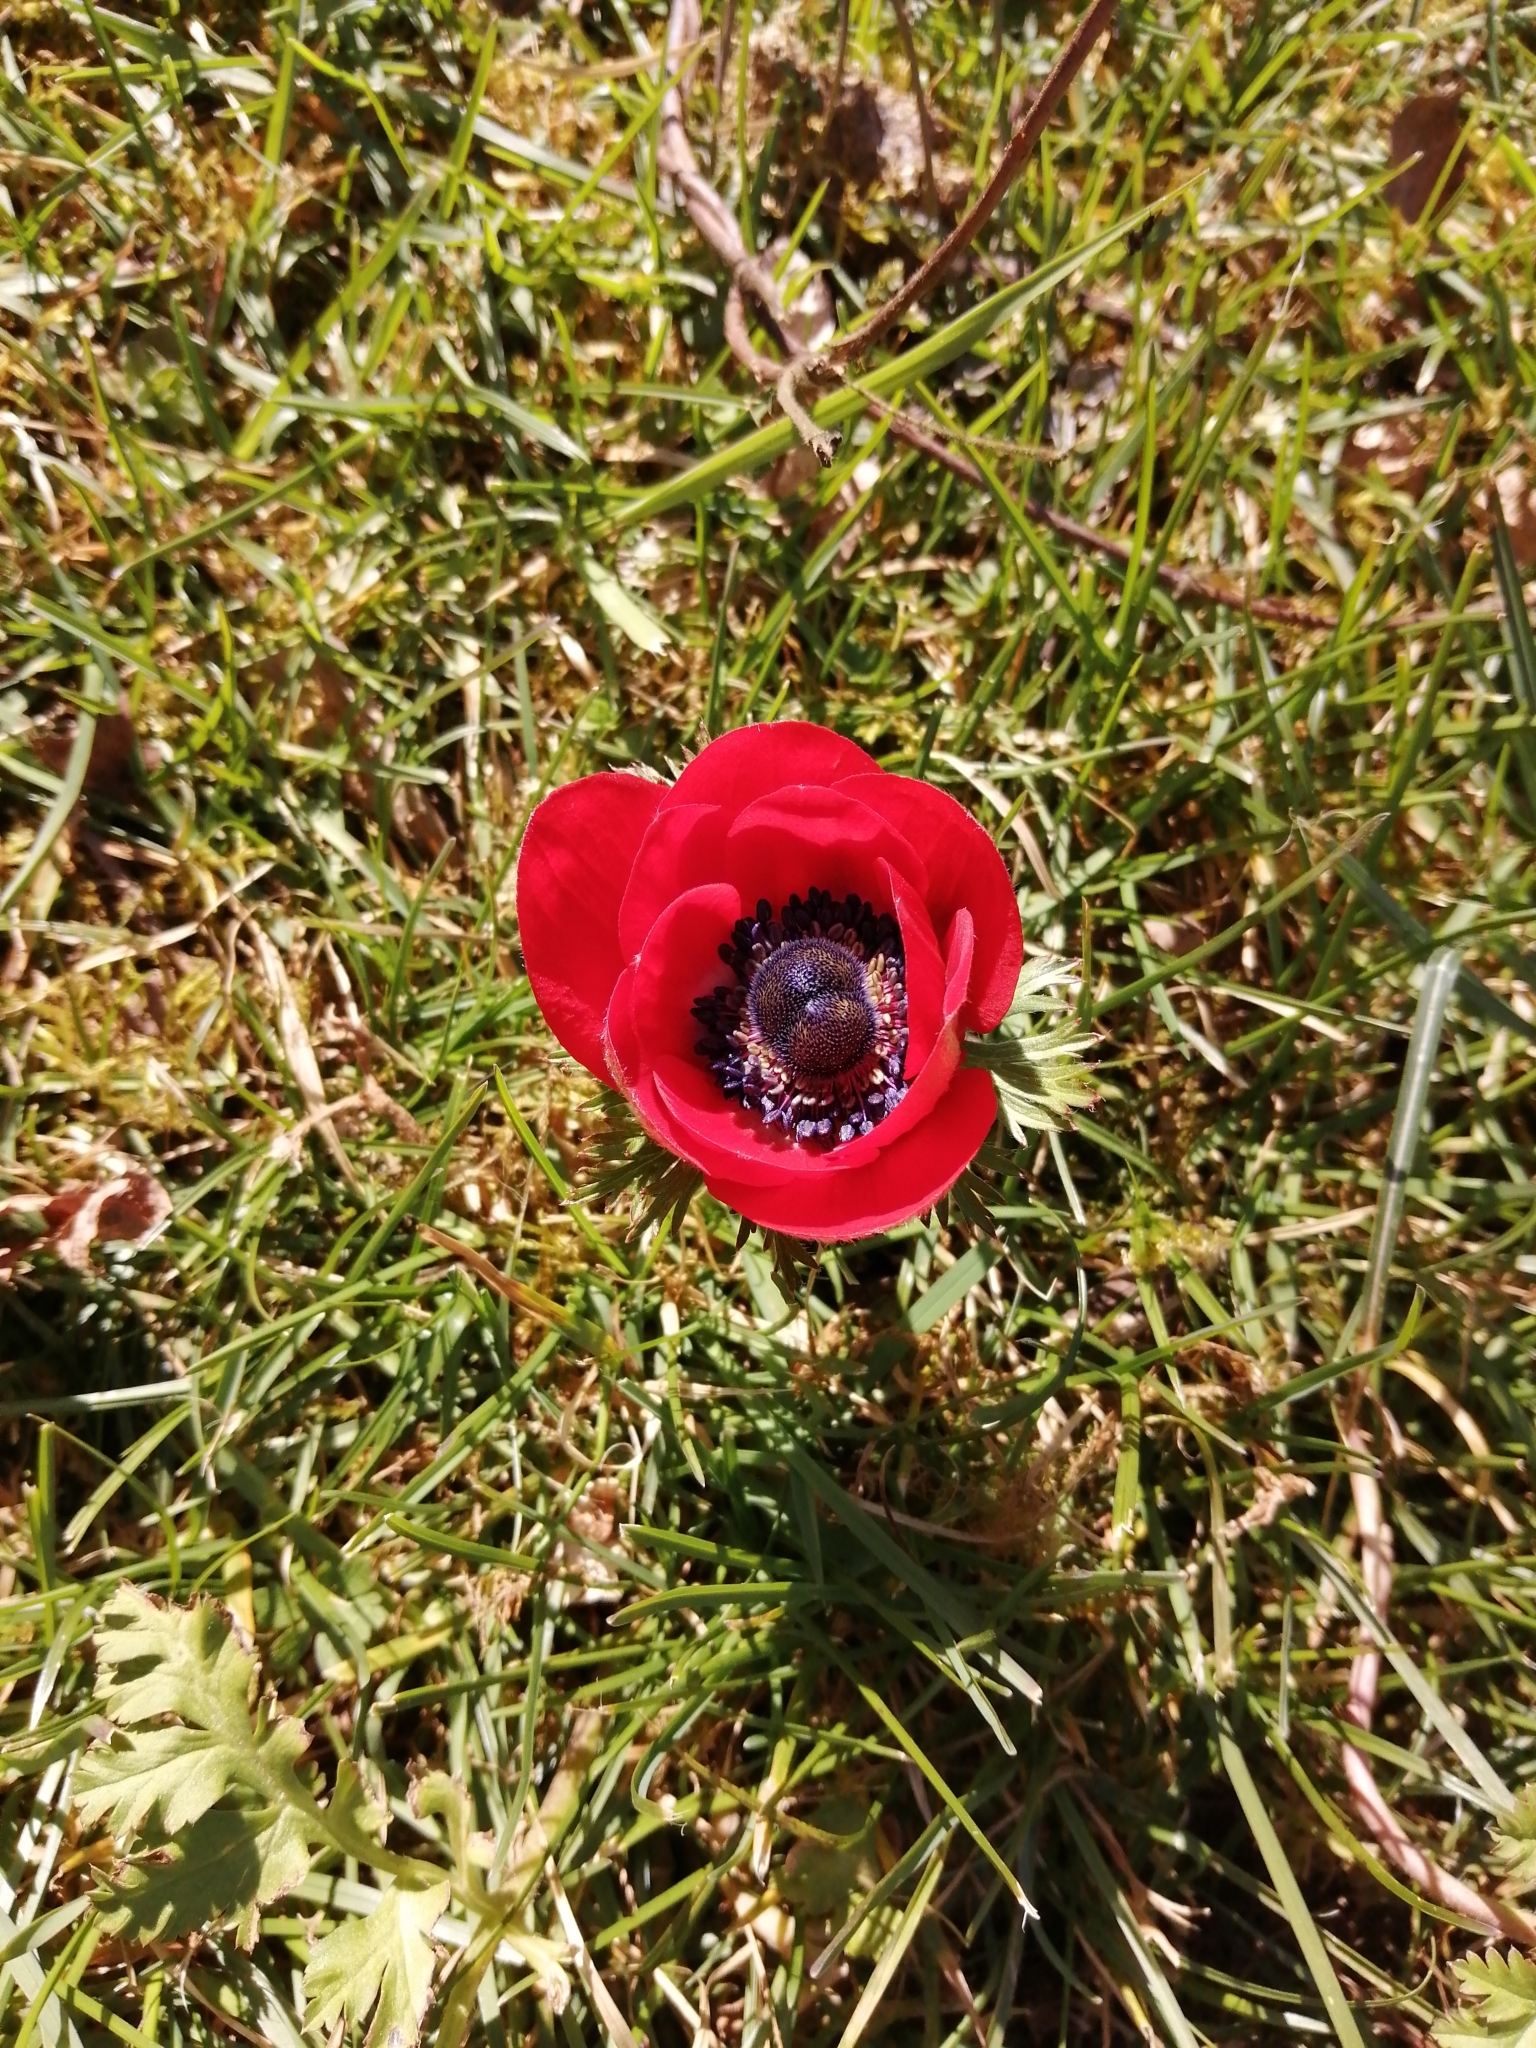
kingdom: Plantae
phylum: Tracheophyta
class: Magnoliopsida
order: Ranunculales
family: Ranunculaceae
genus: Anemone
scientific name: Anemone coronaria
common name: Poppy anemone
